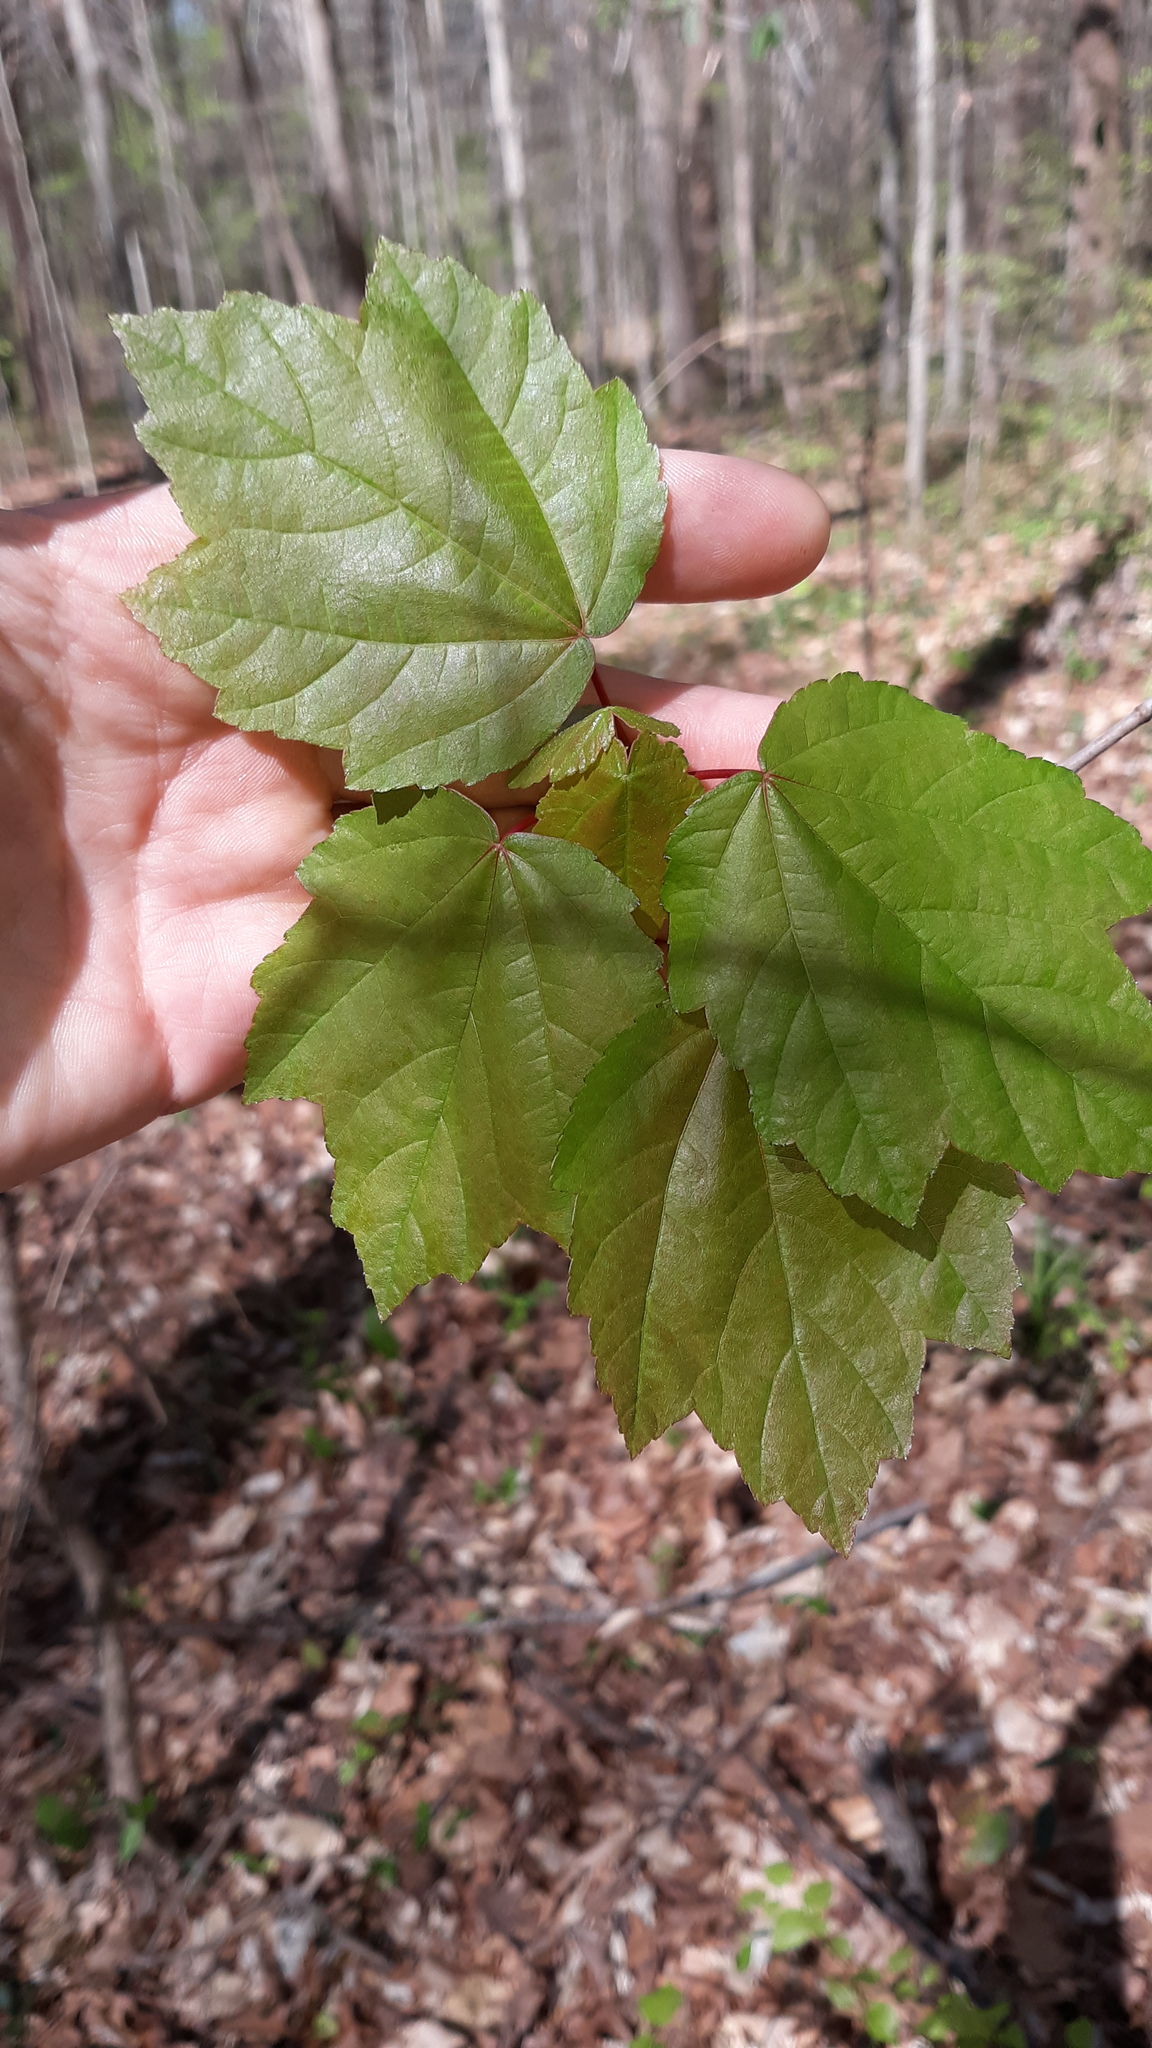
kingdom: Plantae
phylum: Tracheophyta
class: Magnoliopsida
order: Sapindales
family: Sapindaceae
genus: Acer
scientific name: Acer rubrum
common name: Red maple
